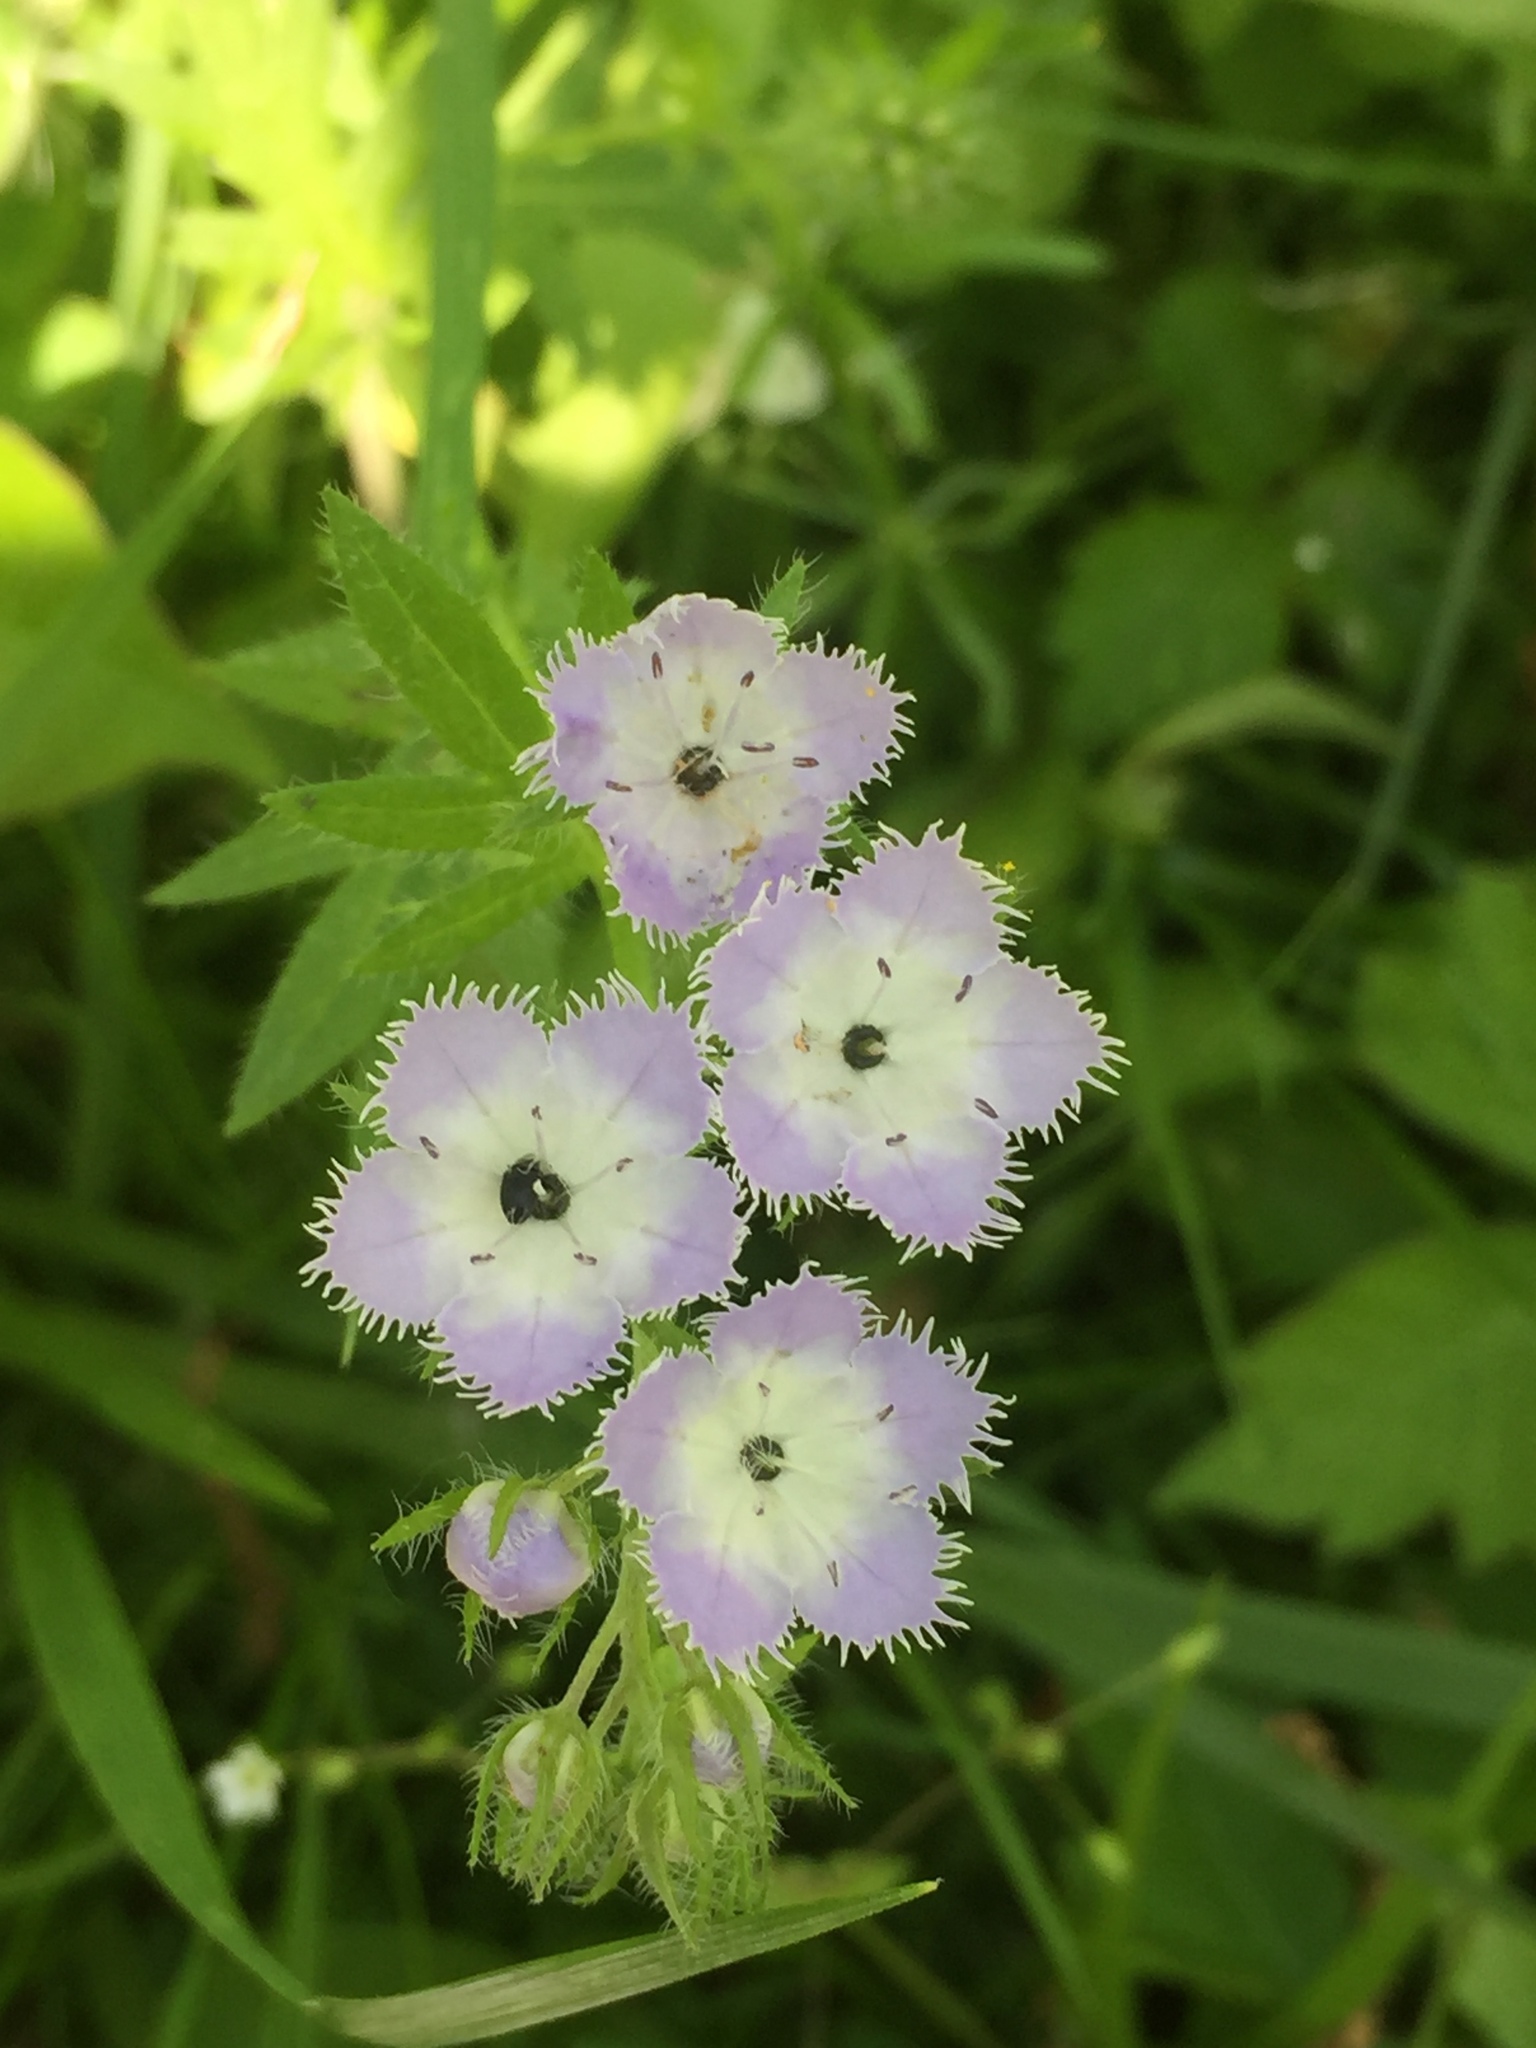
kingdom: Plantae
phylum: Tracheophyta
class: Magnoliopsida
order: Boraginales
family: Hydrophyllaceae
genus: Phacelia
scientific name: Phacelia purshii
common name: Miami-mist
